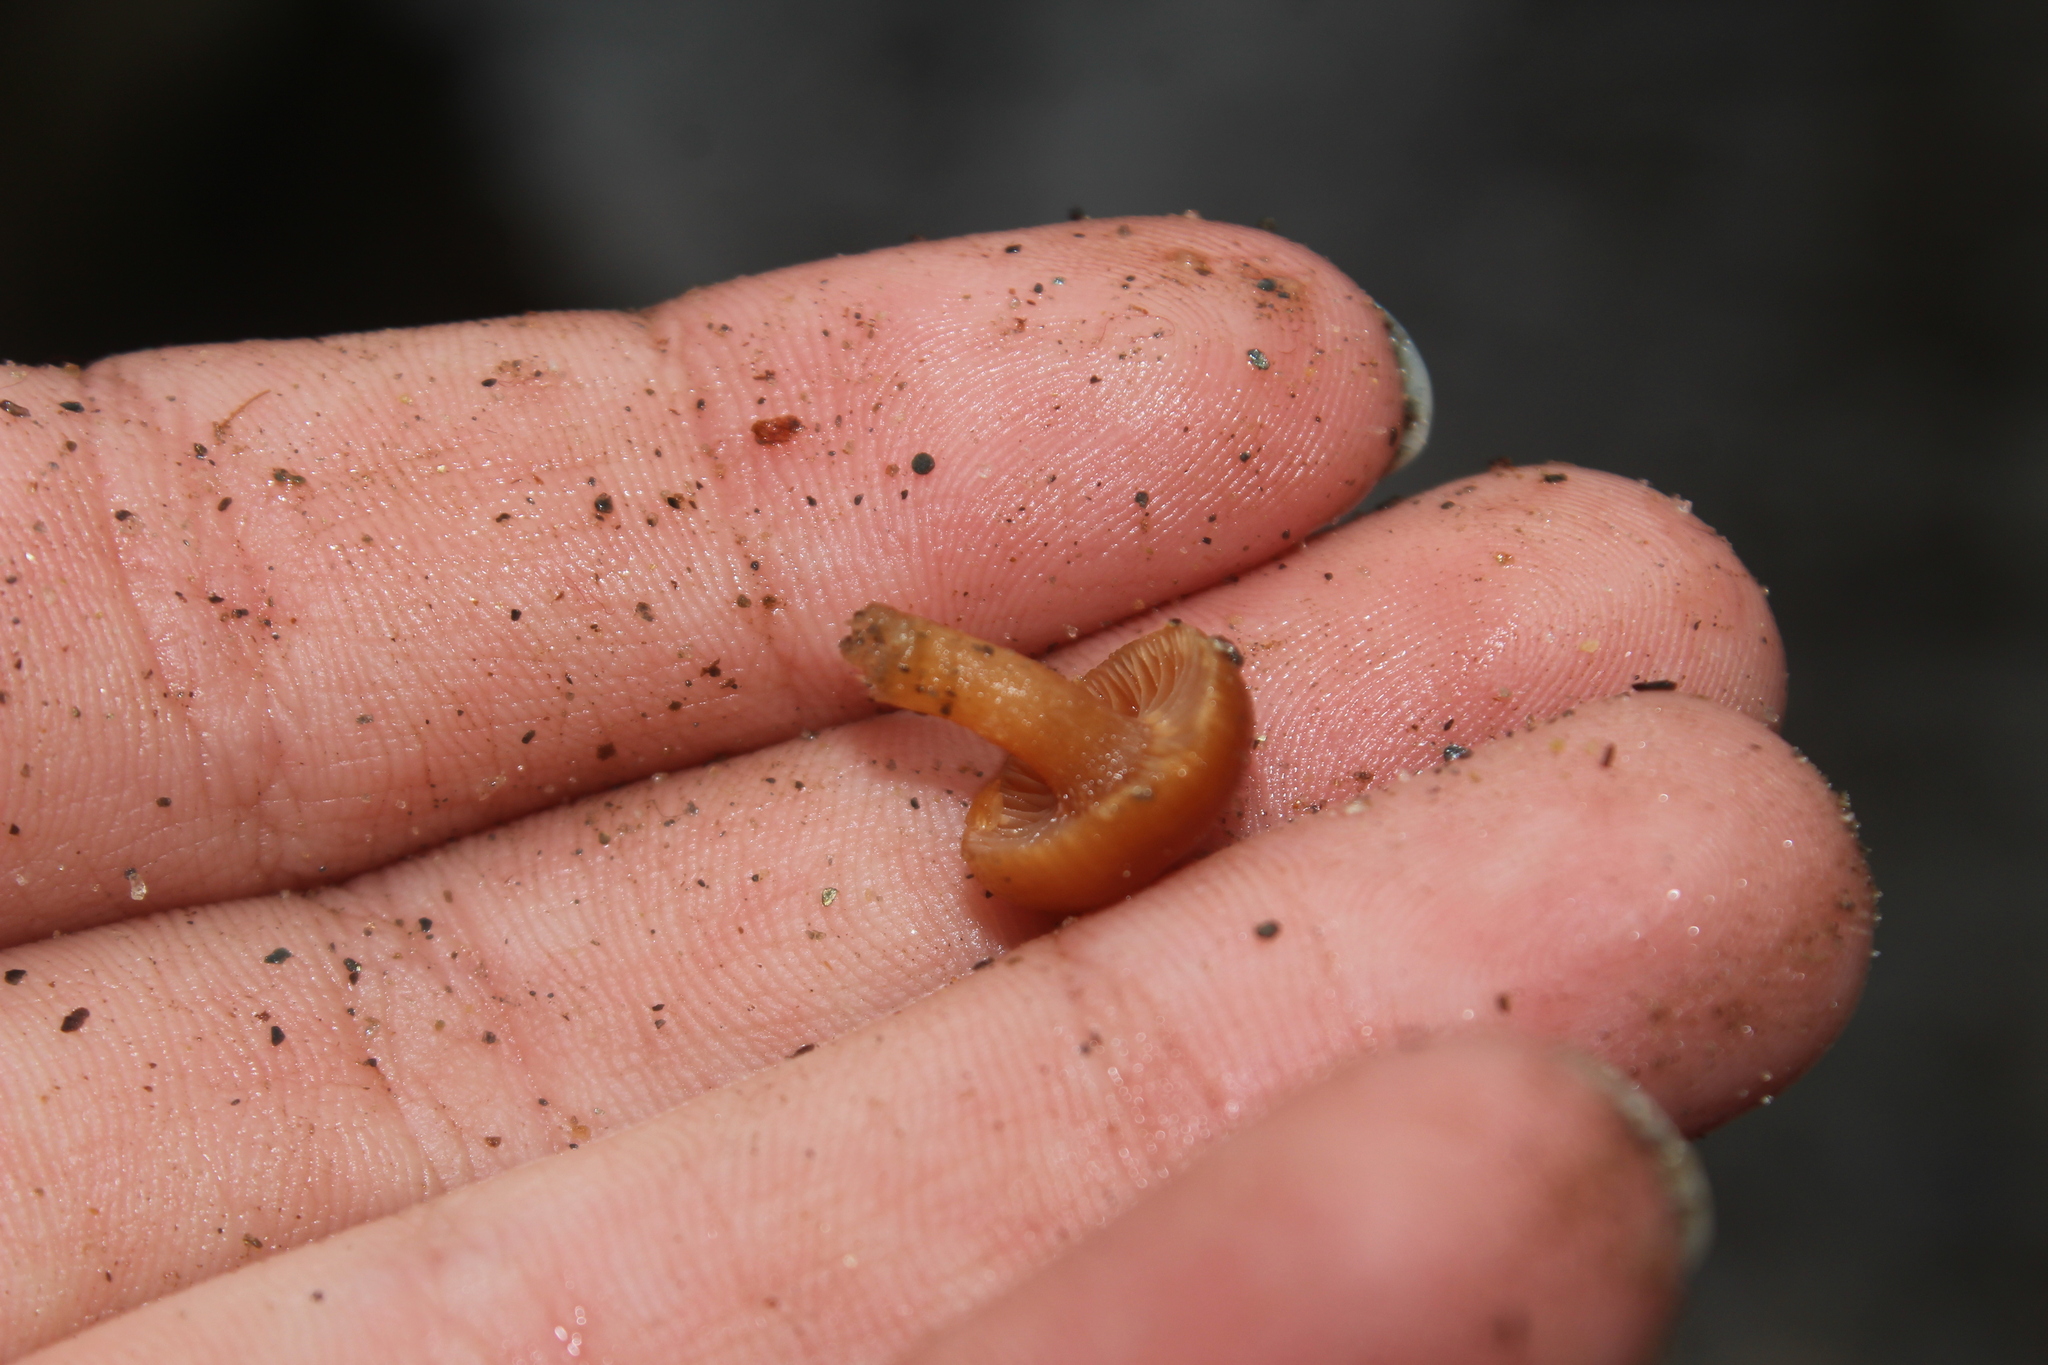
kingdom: Fungi
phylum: Basidiomycota
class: Agaricomycetes
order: Agaricales
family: Tubariaceae
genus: Tubaria
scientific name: Tubaria furfuracea
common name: Scurfy twiglet
